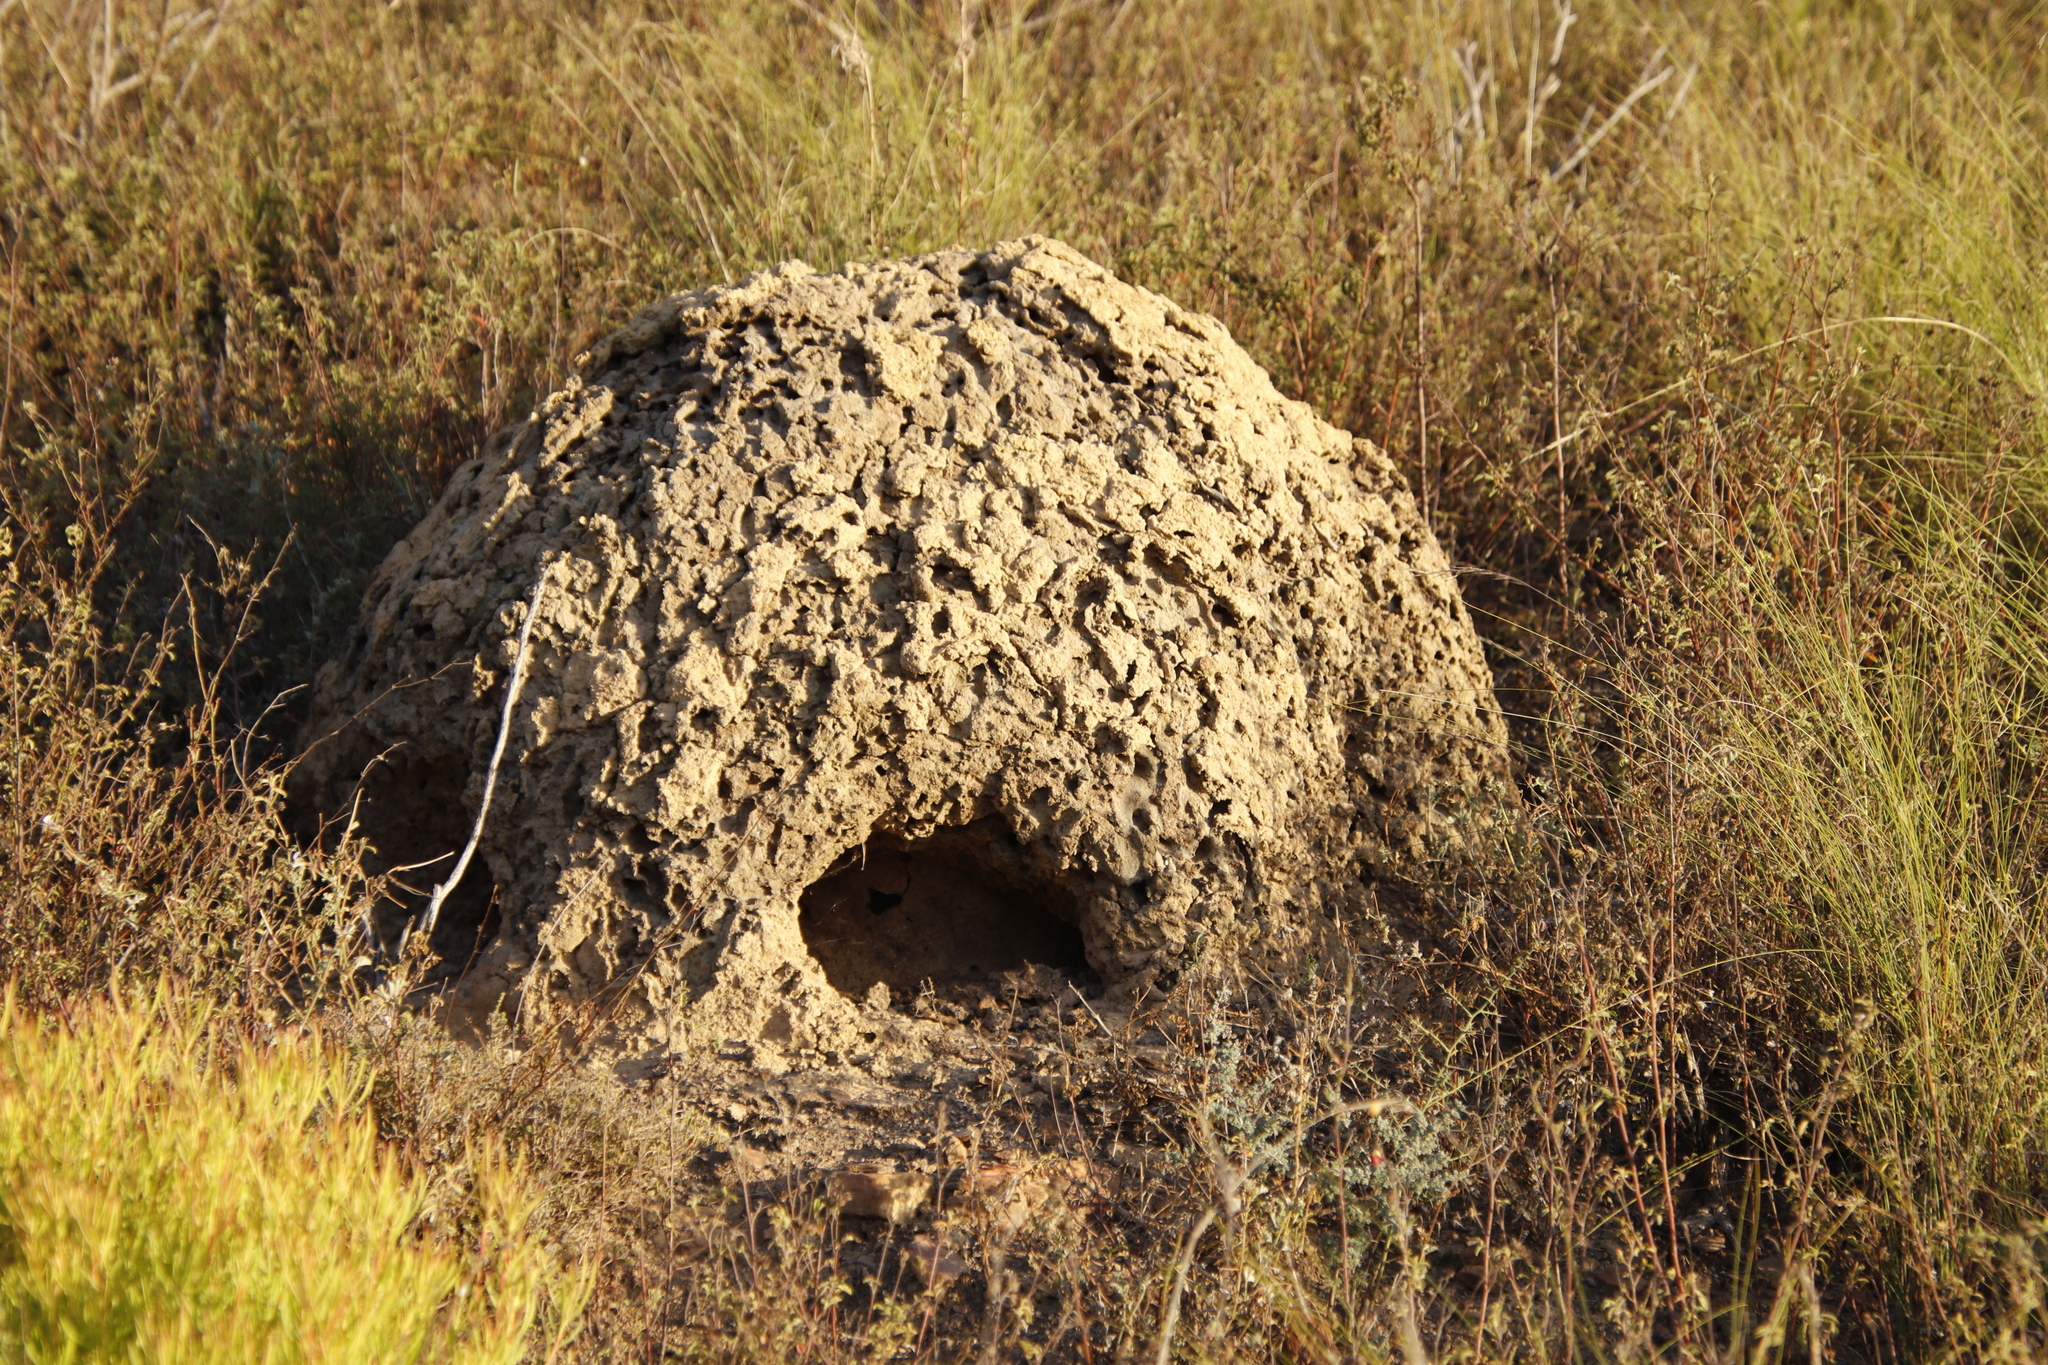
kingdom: Animalia
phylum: Chordata
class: Mammalia
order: Tubulidentata
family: Orycteropodidae
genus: Orycteropus
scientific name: Orycteropus afer
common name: Aardvark
